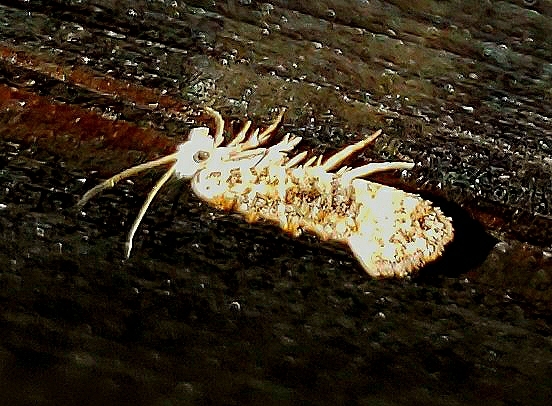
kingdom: Animalia
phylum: Arthropoda
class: Insecta
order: Lepidoptera
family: Tineidae
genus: Xylesthia
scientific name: Xylesthia pruniramiella
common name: Clemens' bark moth
